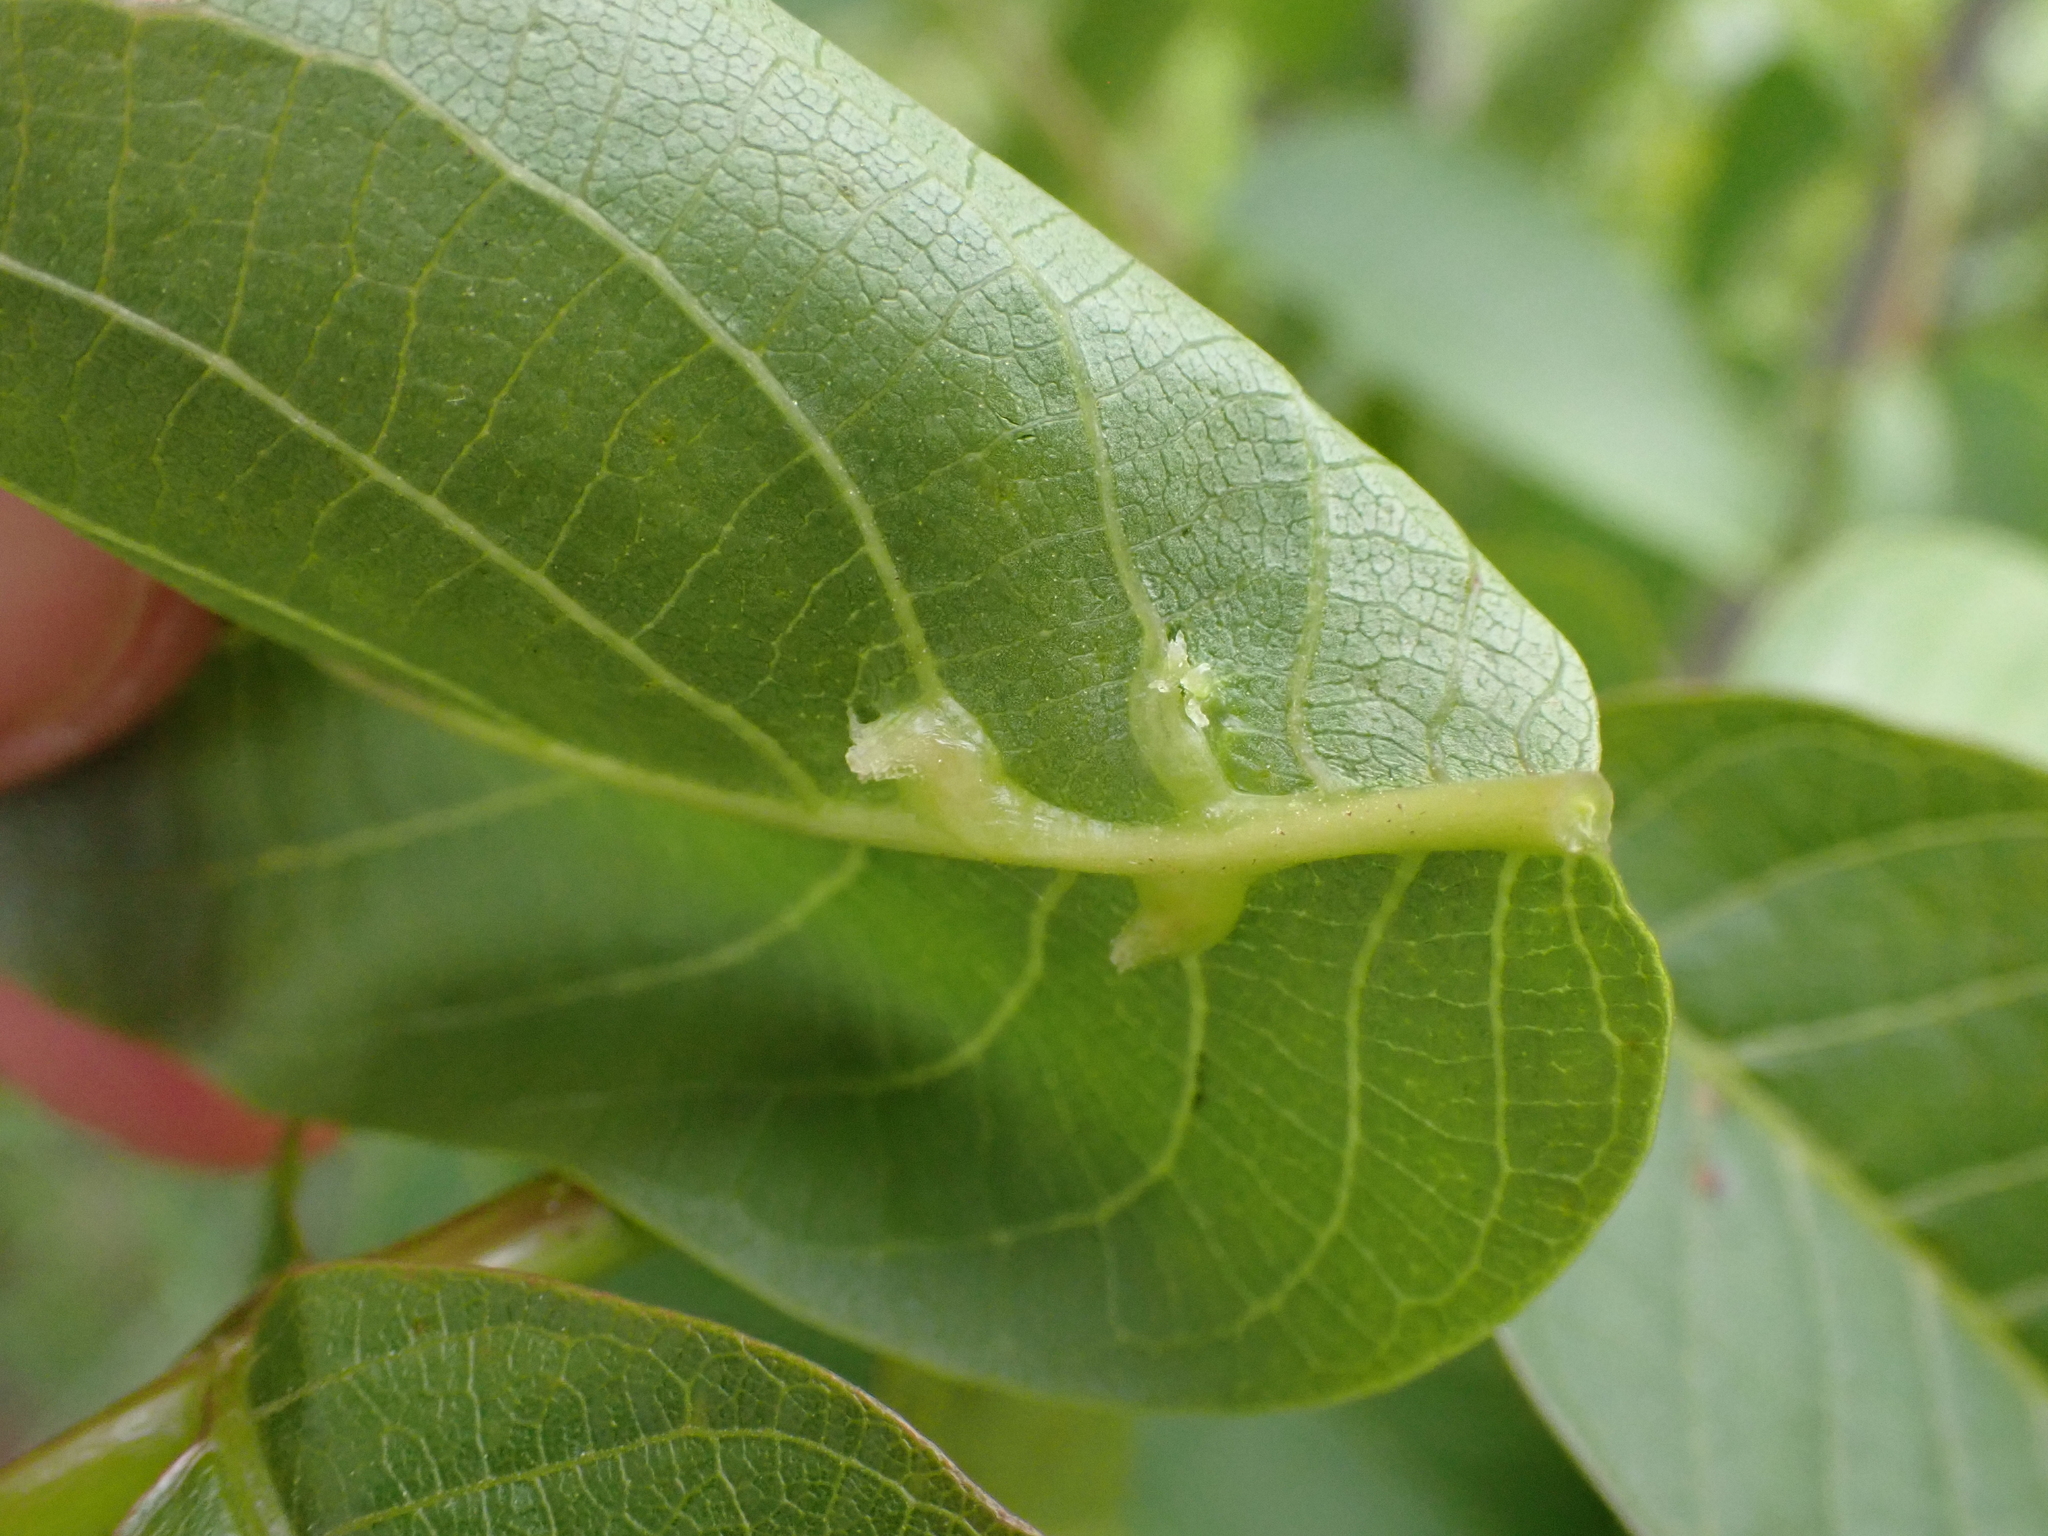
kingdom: Animalia
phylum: Arthropoda
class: Arachnida
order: Trombidiformes
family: Eriophyidae
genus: Aceria
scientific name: Aceria brachytarsus
